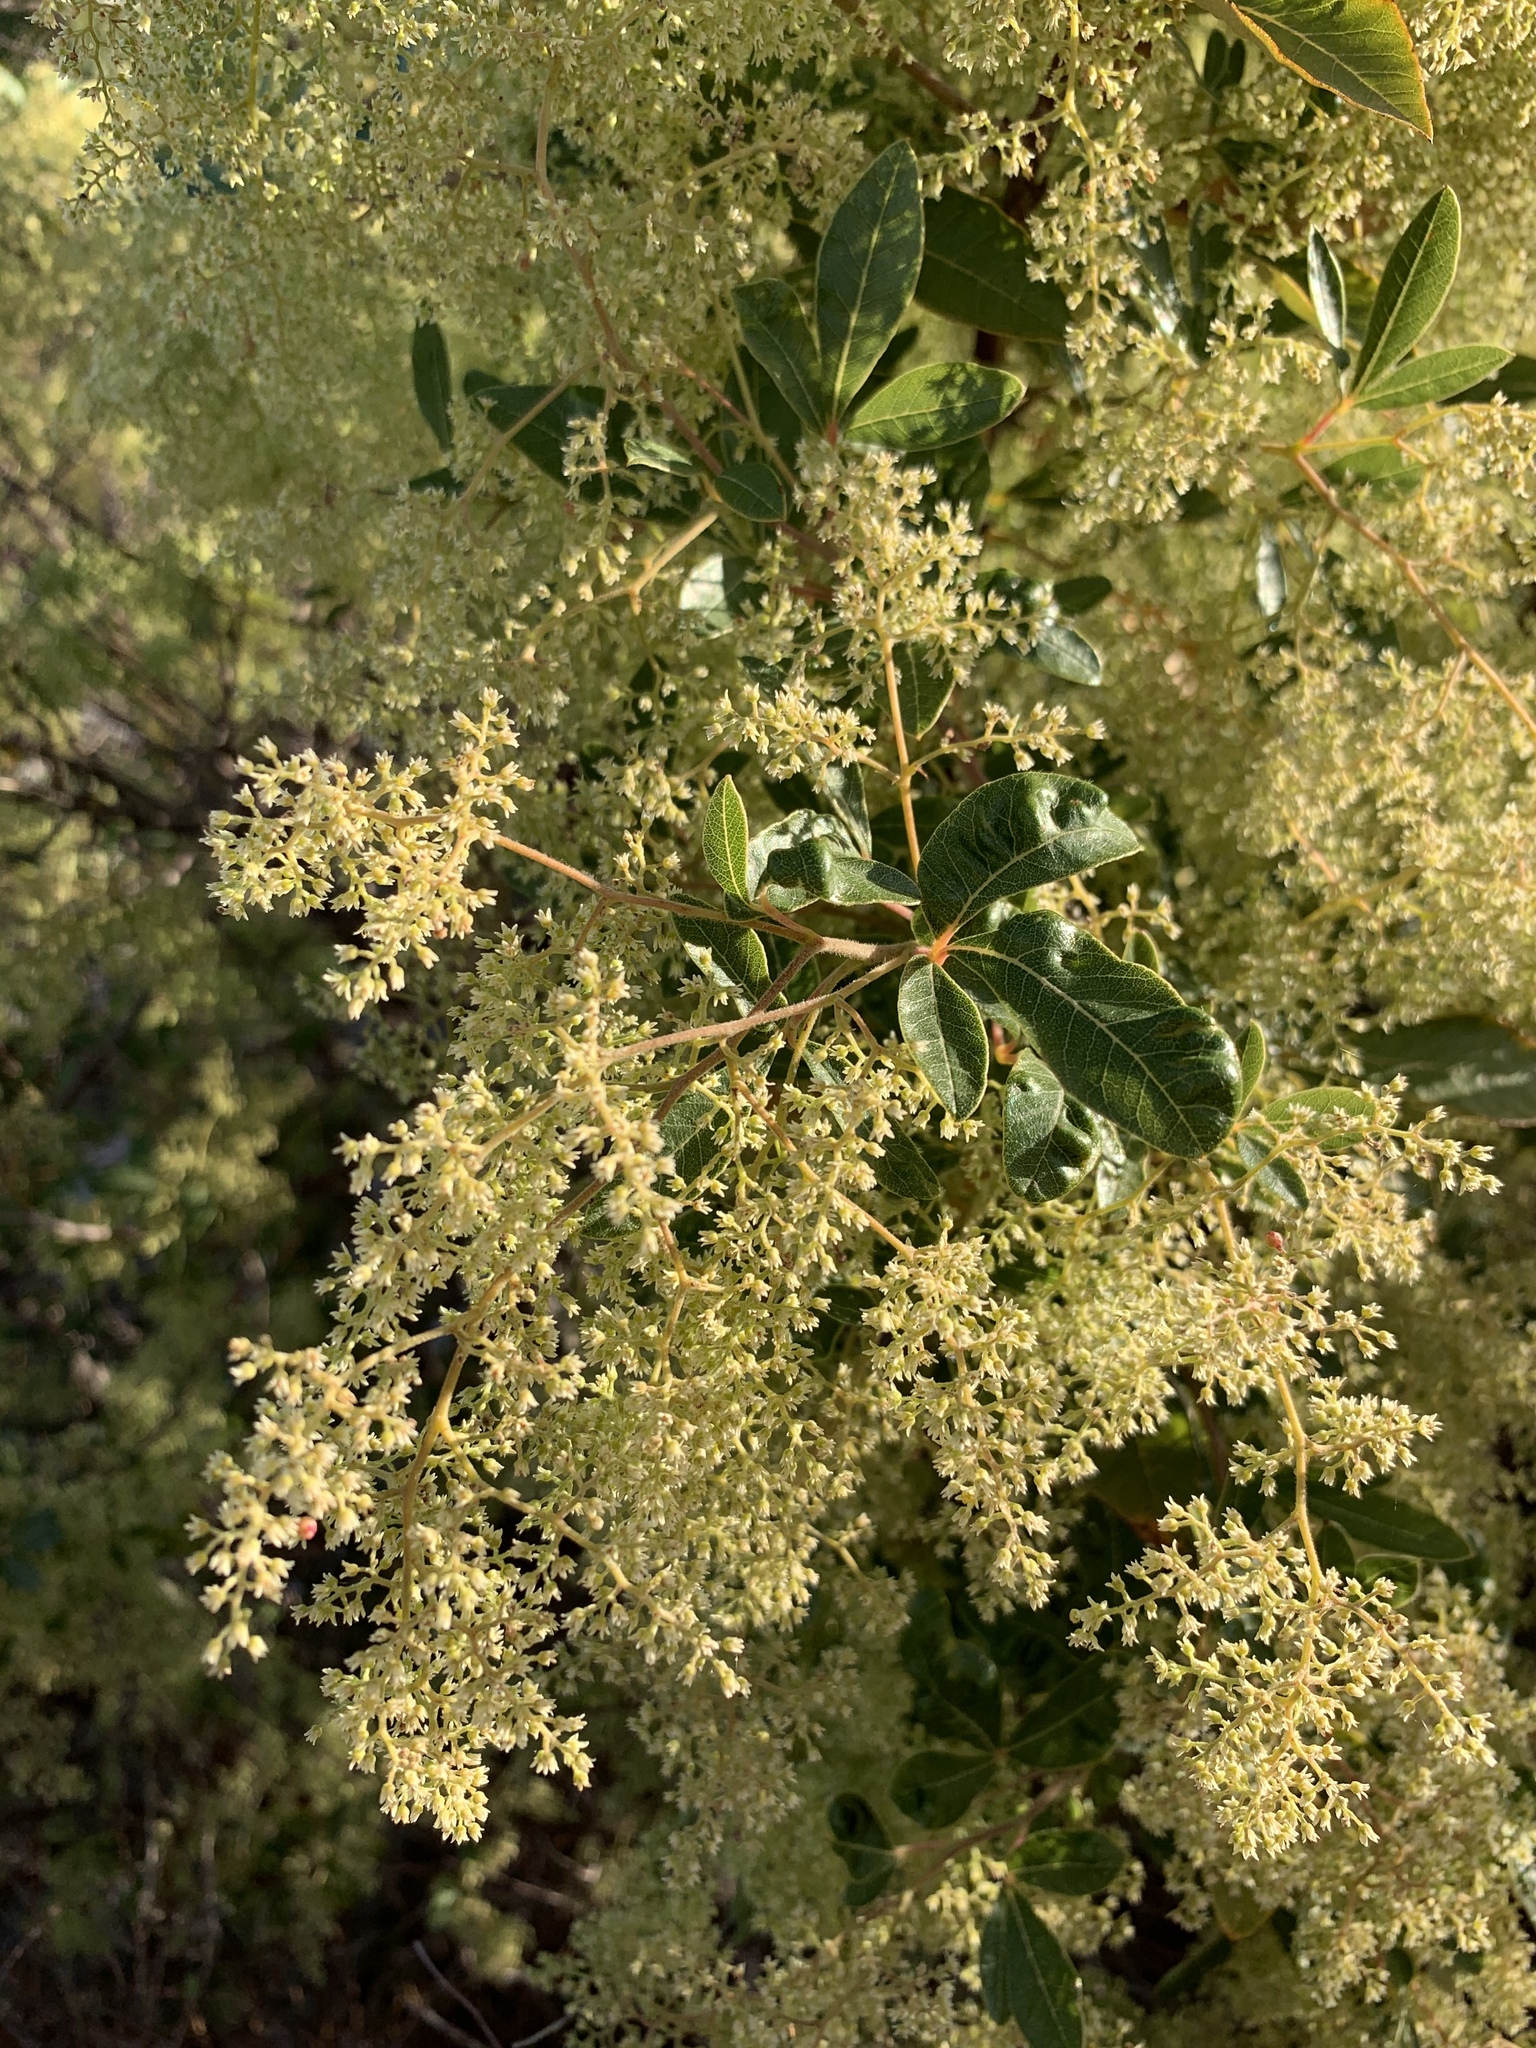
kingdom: Plantae
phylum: Tracheophyta
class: Magnoliopsida
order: Sapindales
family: Anacardiaceae
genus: Searsia
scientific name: Searsia tomentosa
